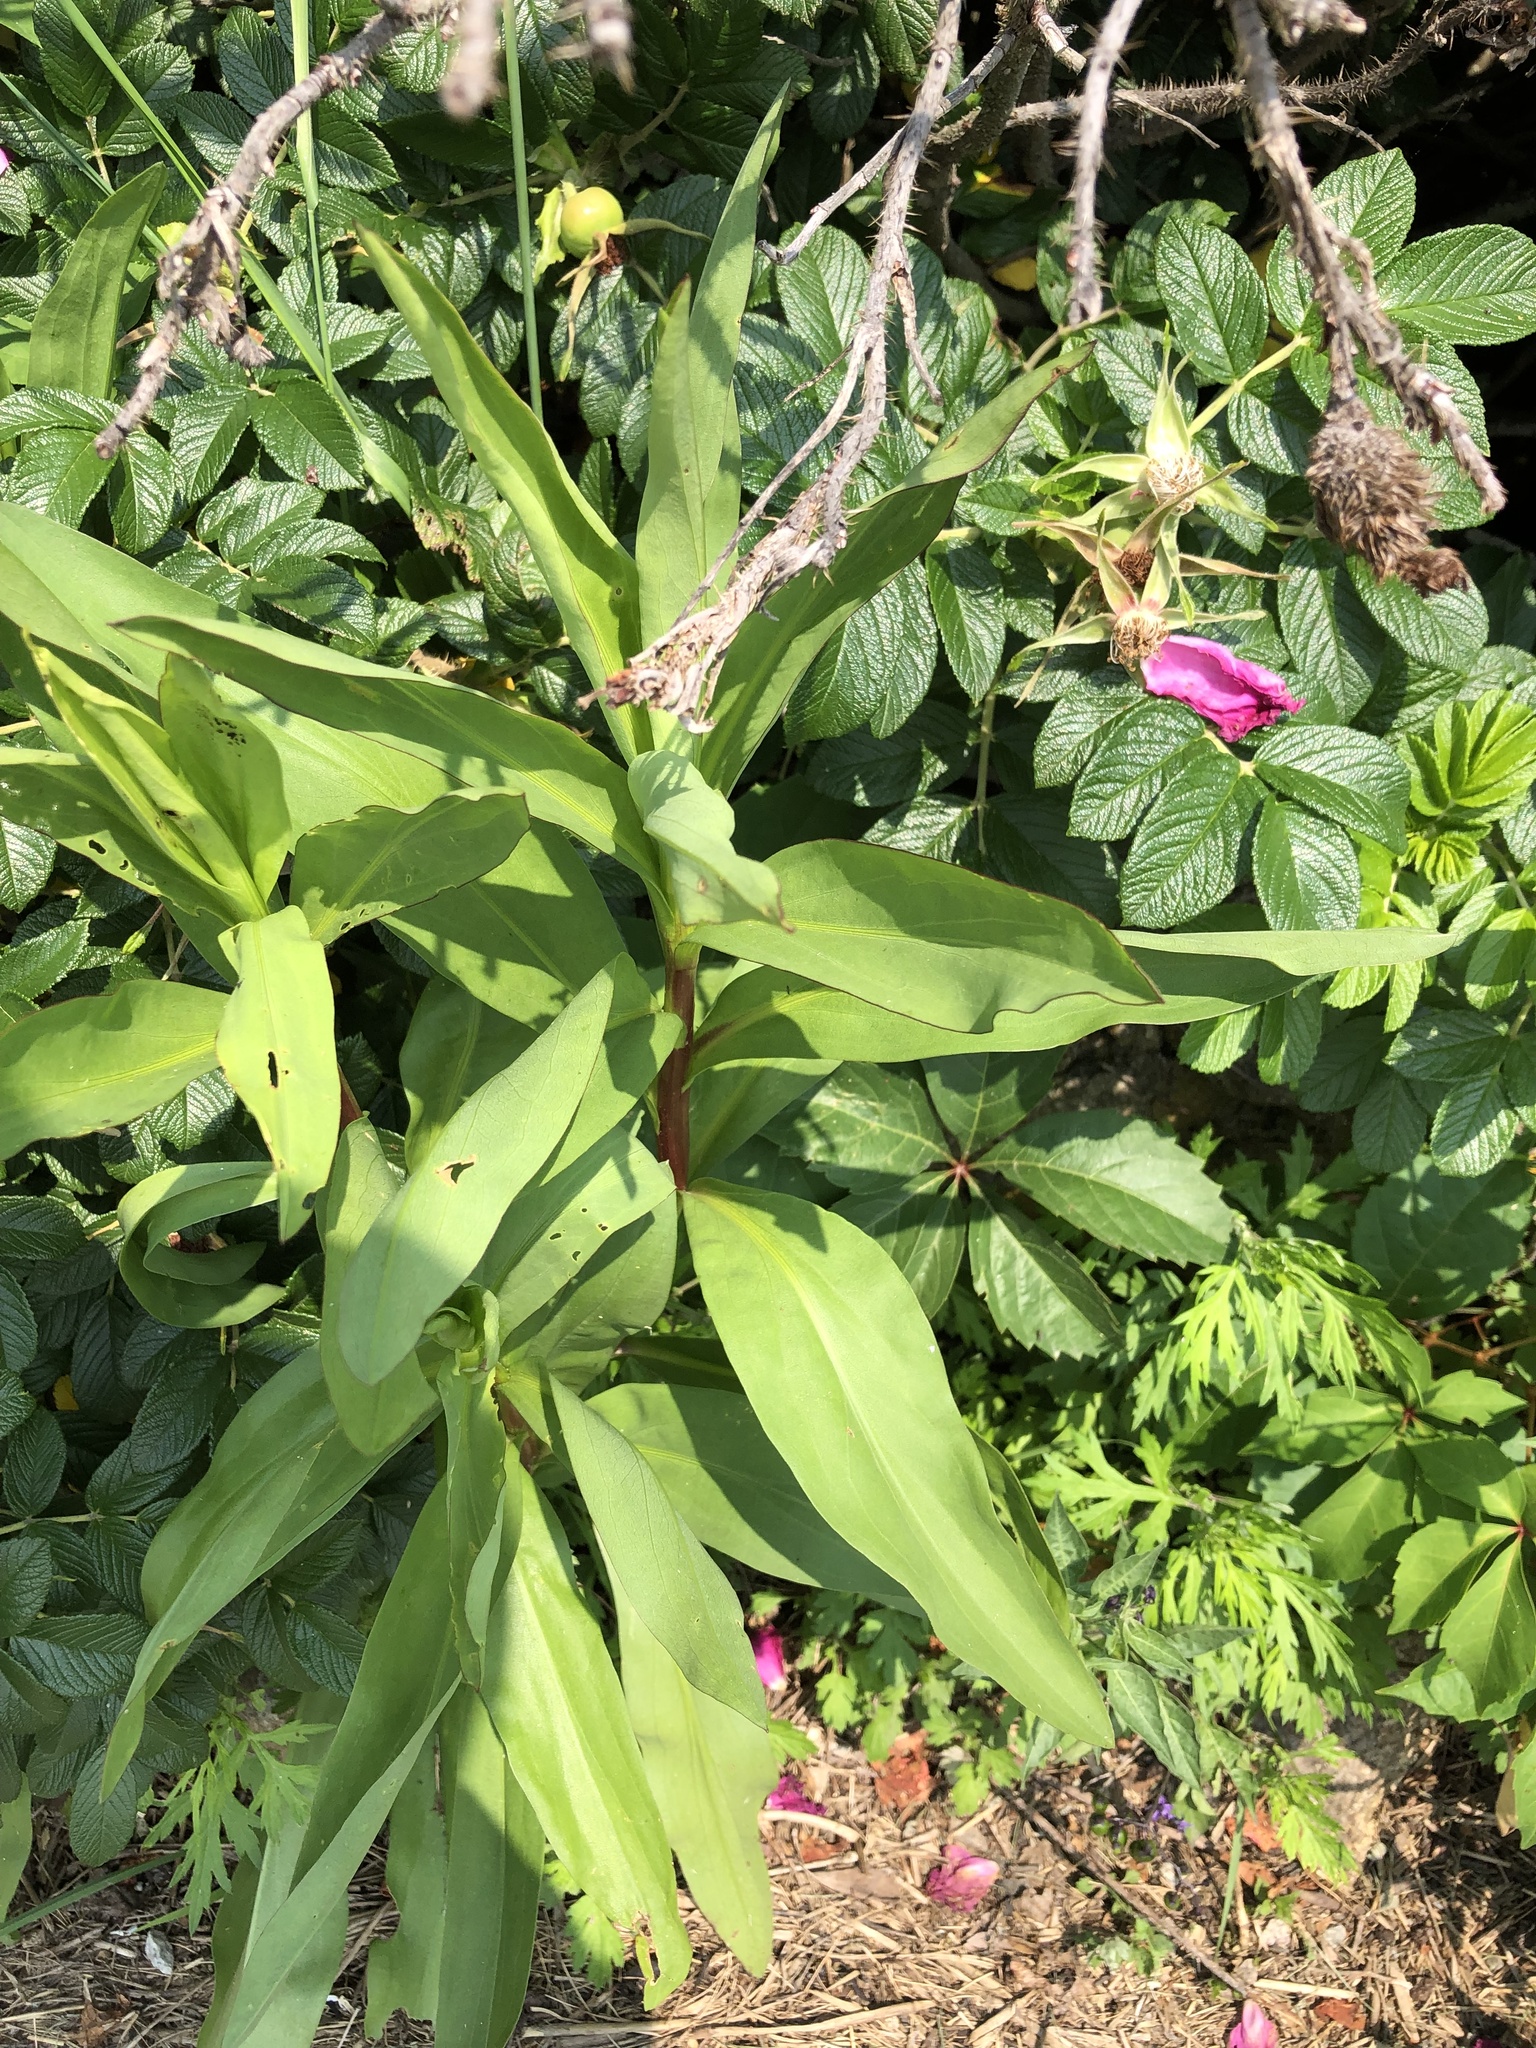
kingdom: Plantae
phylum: Tracheophyta
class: Magnoliopsida
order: Asterales
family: Asteraceae
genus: Solidago
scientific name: Solidago sempervirens
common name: Salt-marsh goldenrod
